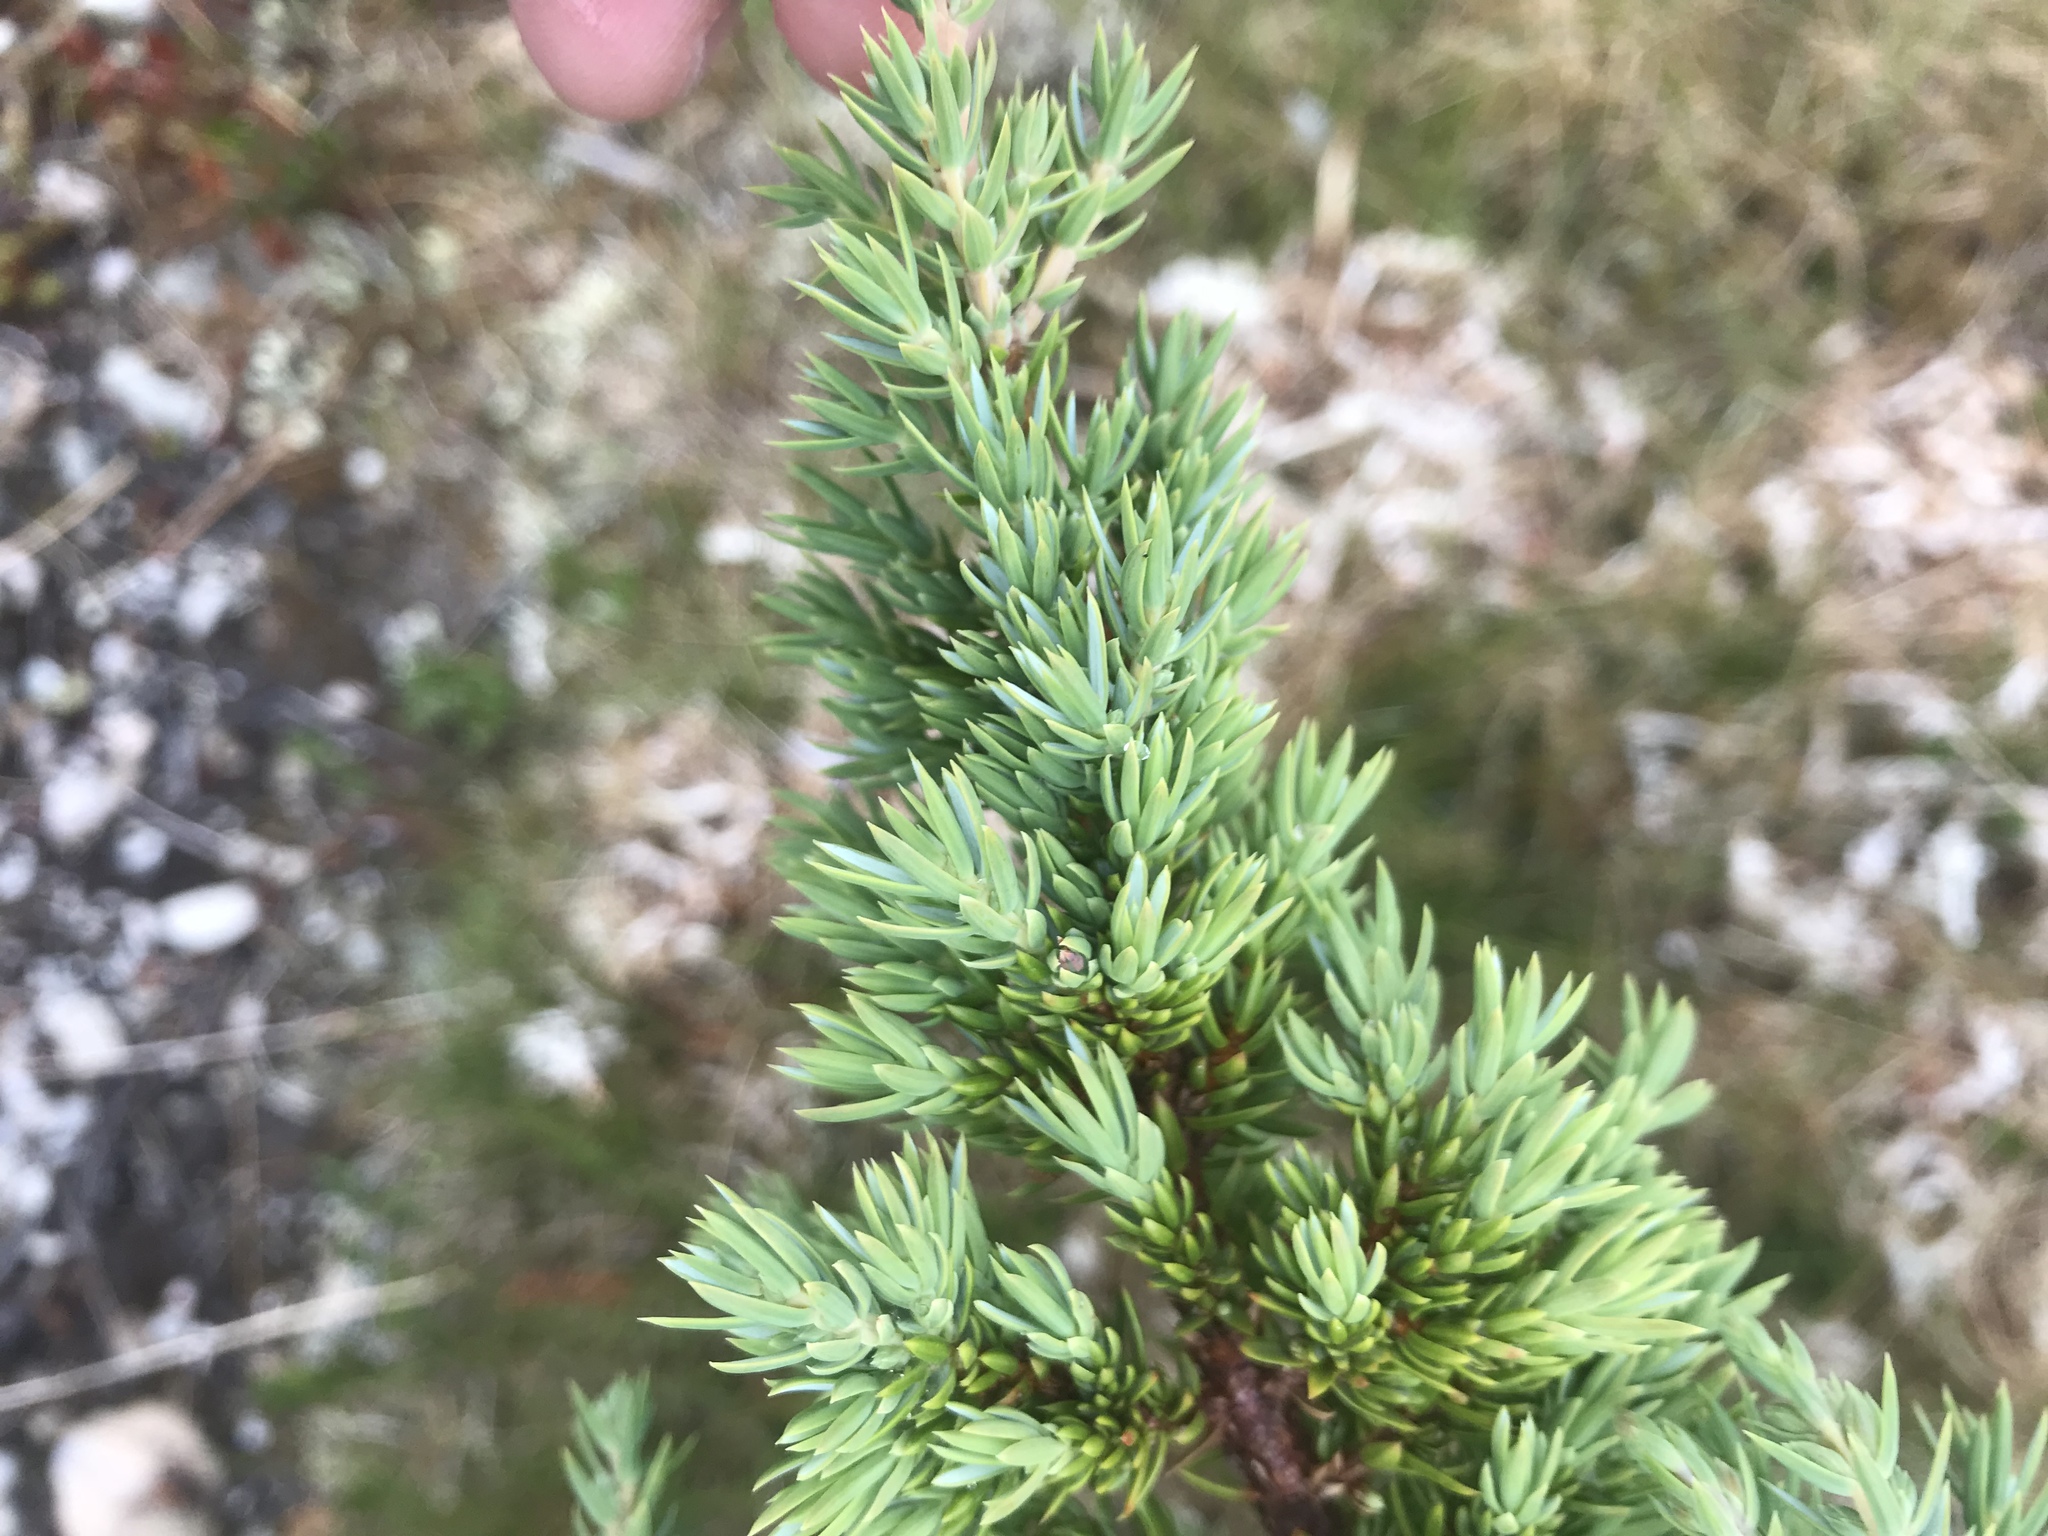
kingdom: Plantae
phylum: Tracheophyta
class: Pinopsida
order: Pinales
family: Cupressaceae
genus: Juniperus
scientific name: Juniperus communis
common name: Common juniper
